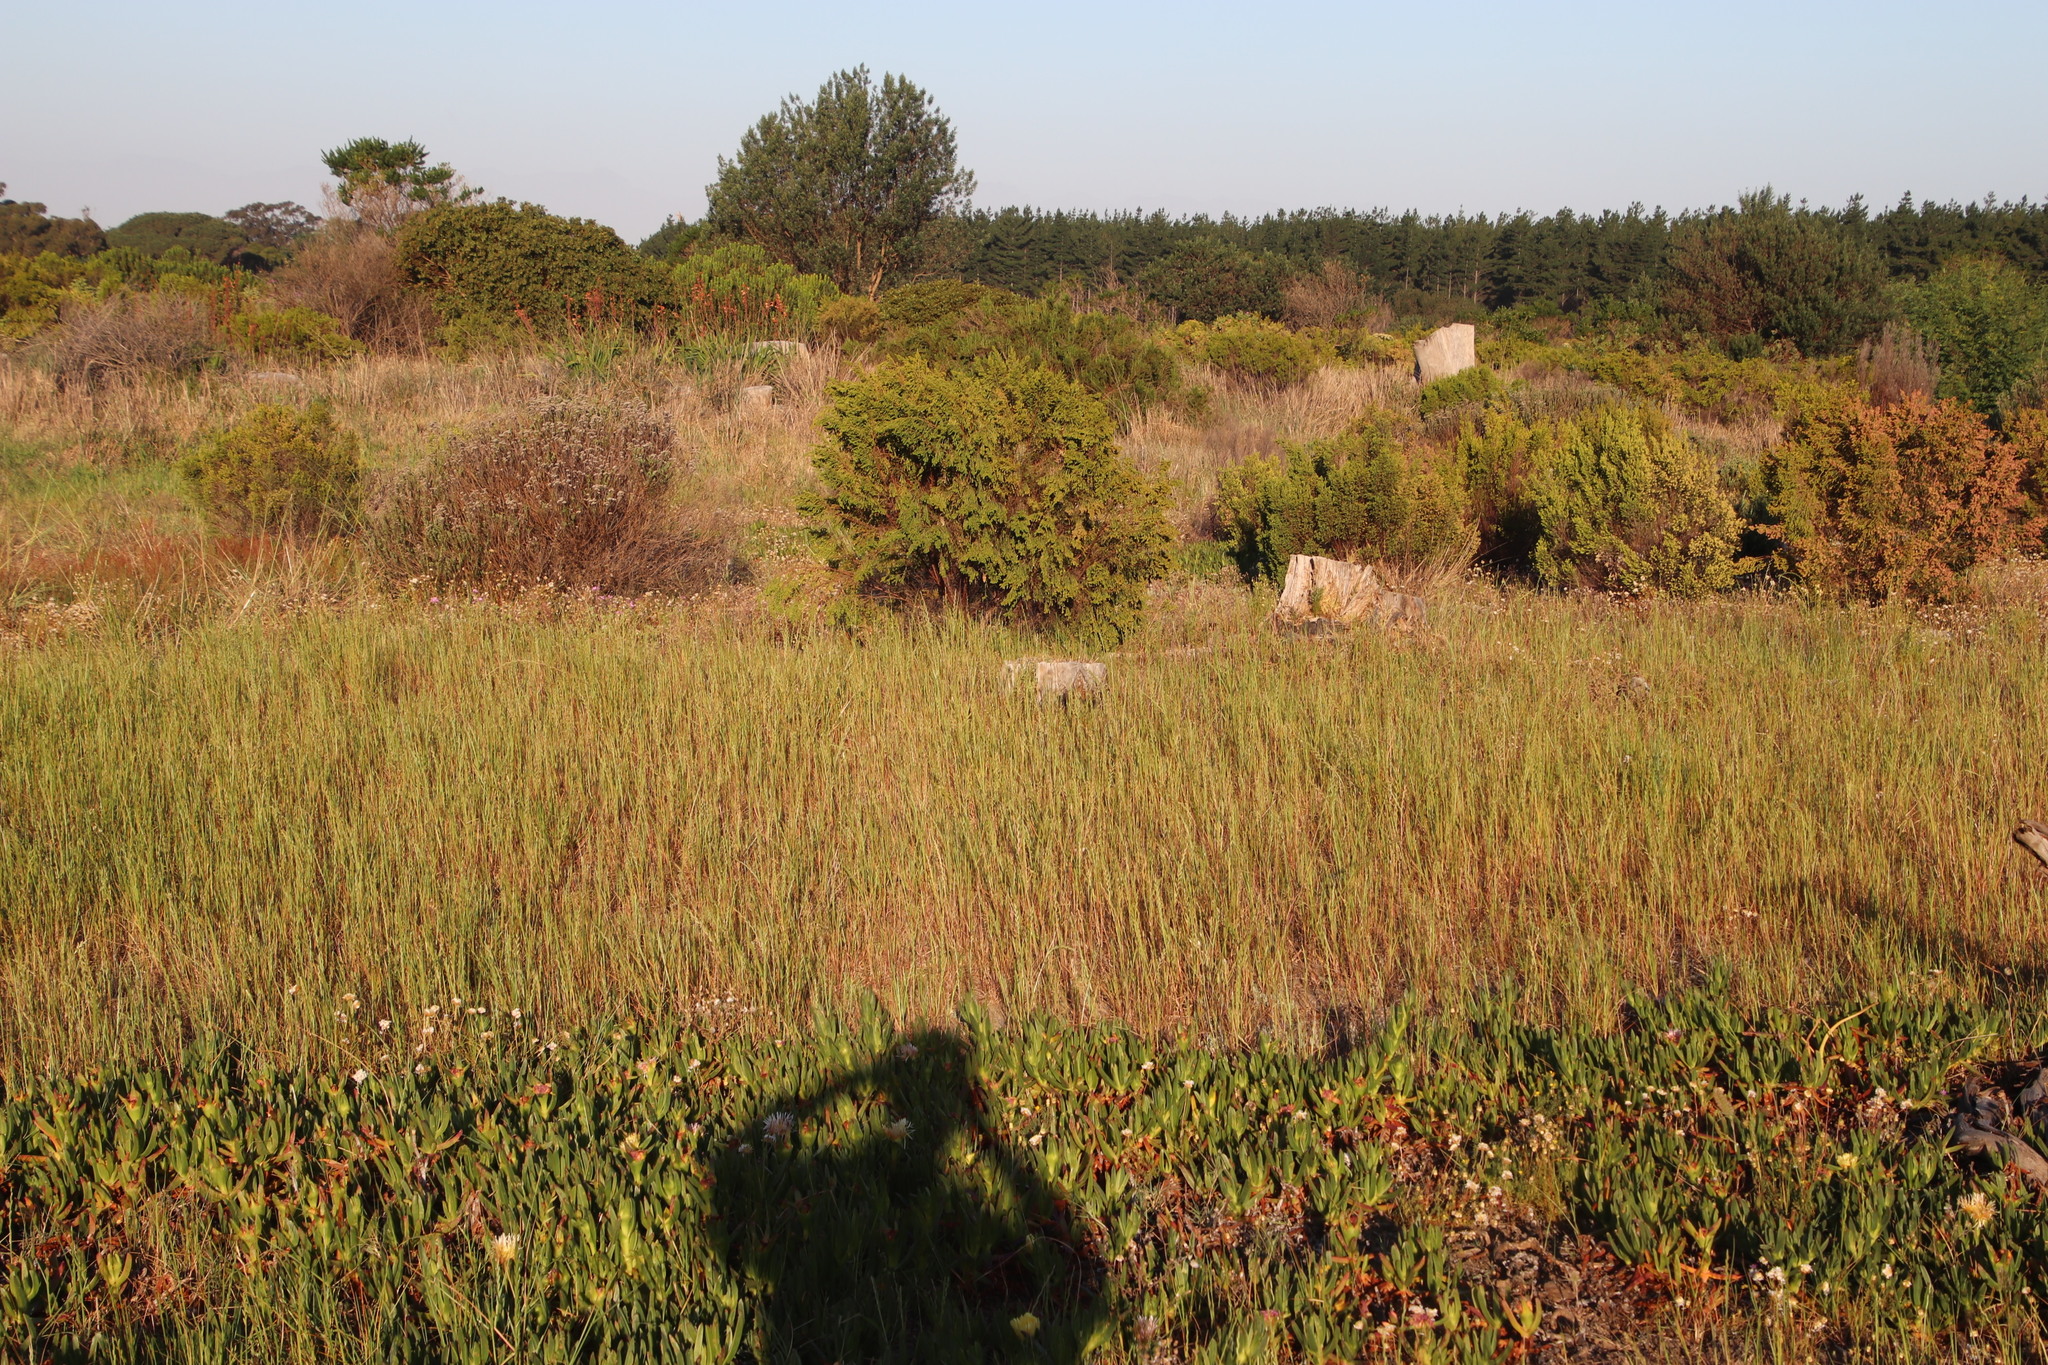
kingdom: Plantae
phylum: Tracheophyta
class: Liliopsida
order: Poales
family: Poaceae
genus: Lolium
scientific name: Lolium perenne
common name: Perennial ryegrass
